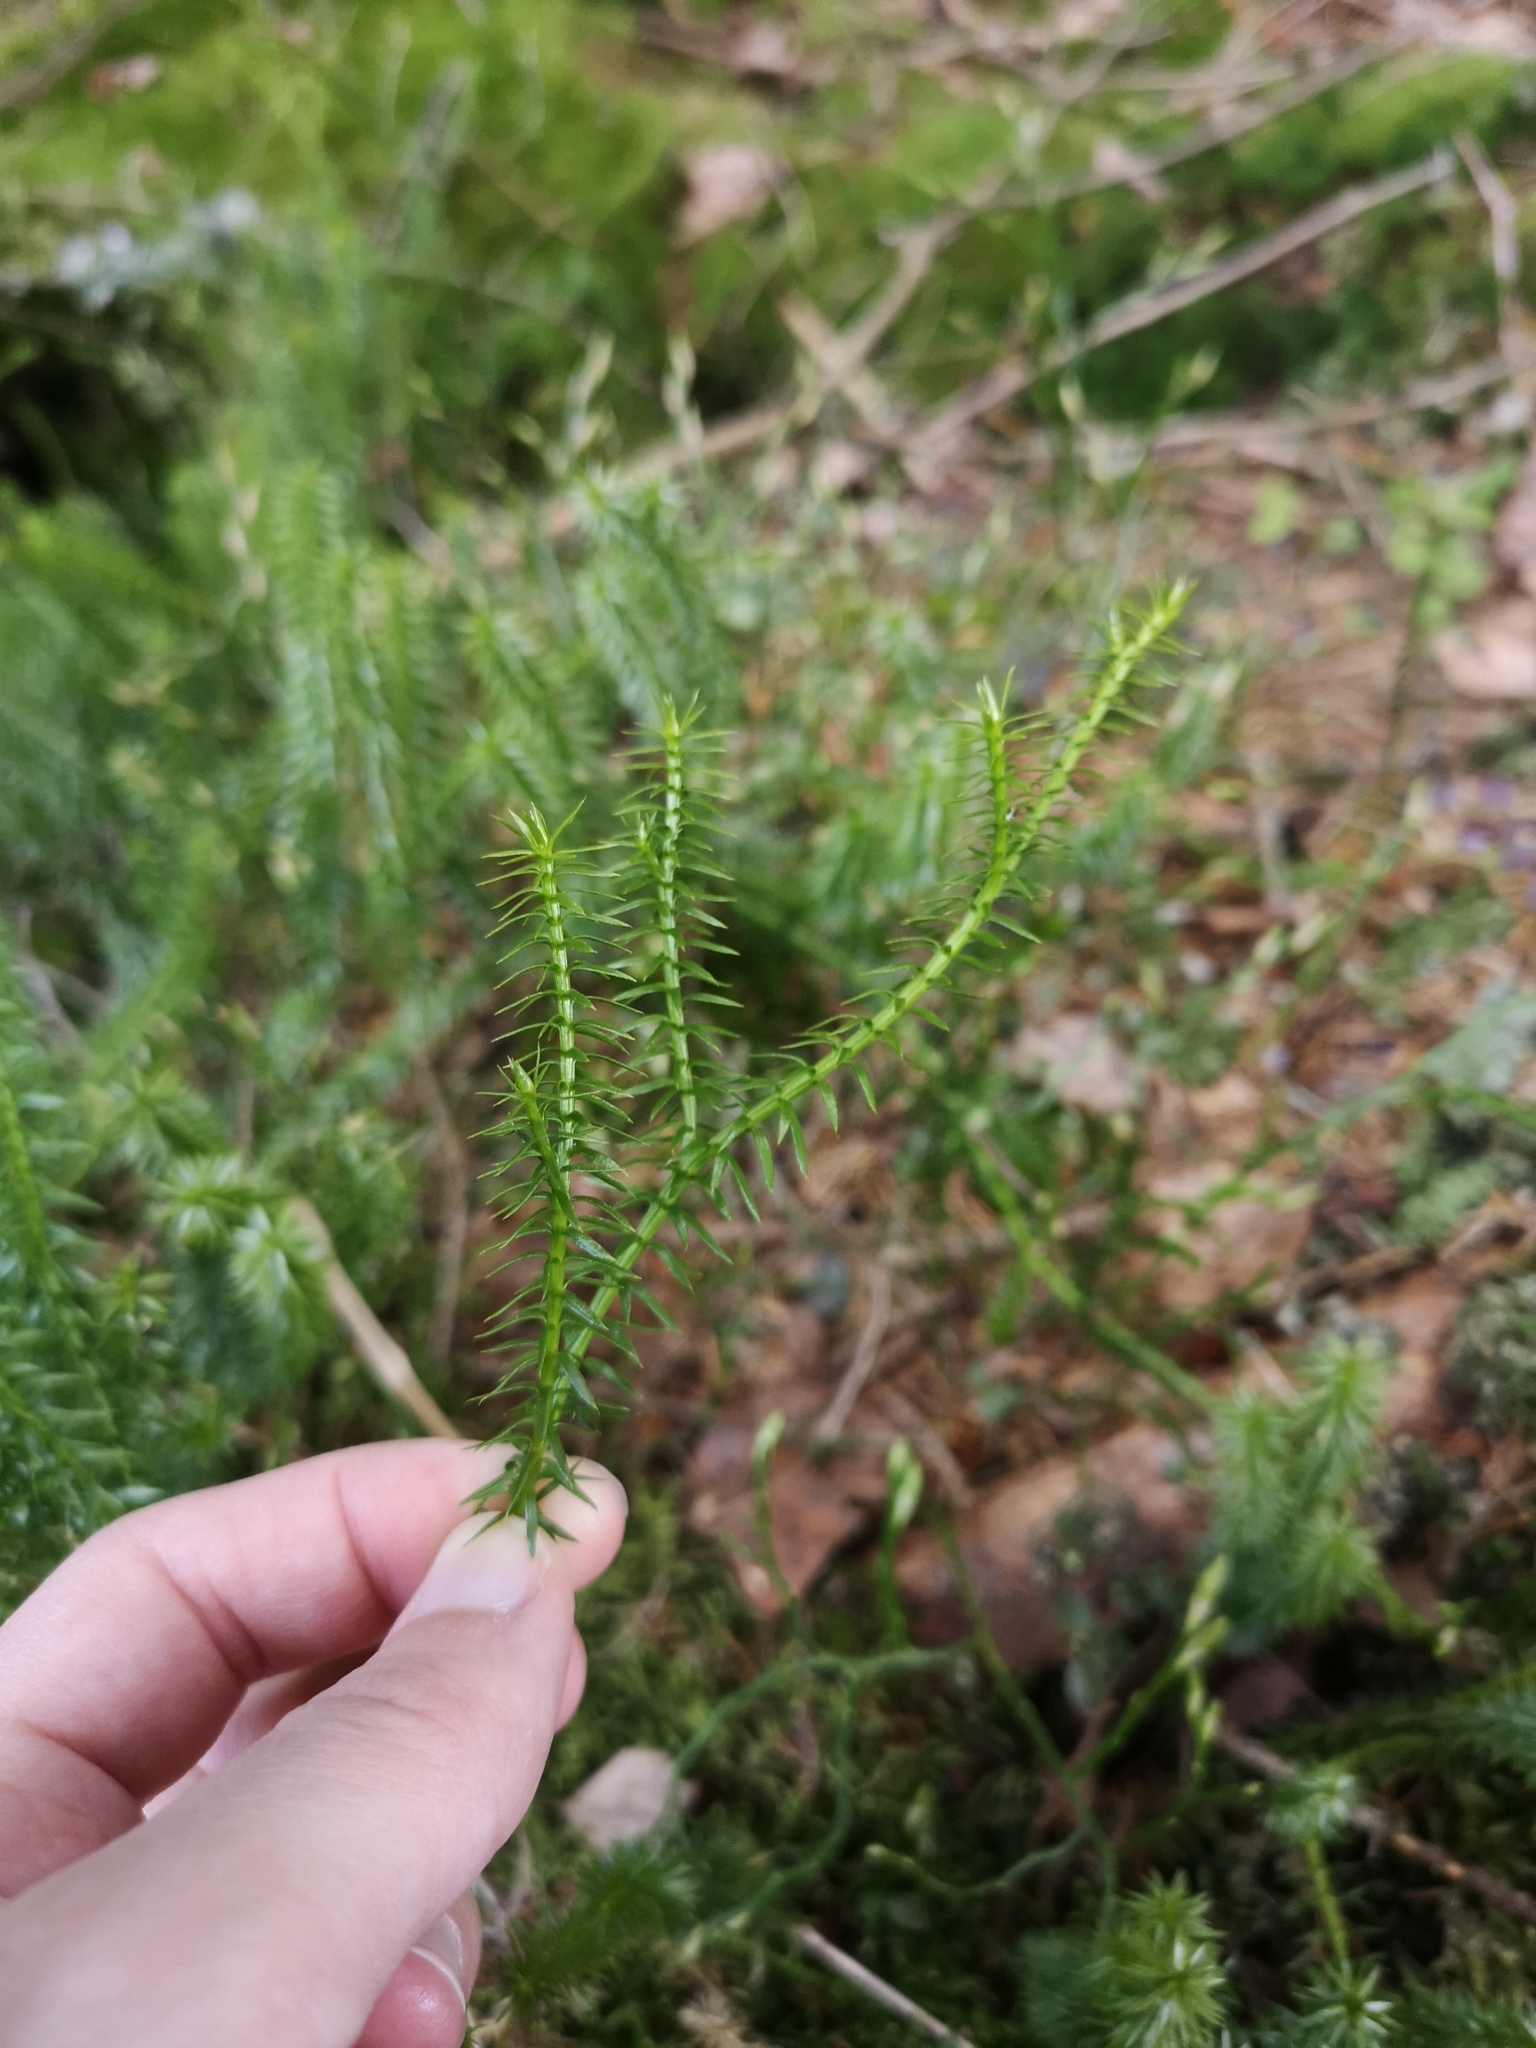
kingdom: Plantae
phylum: Tracheophyta
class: Lycopodiopsida
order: Lycopodiales
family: Lycopodiaceae
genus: Spinulum
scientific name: Spinulum annotinum
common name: Interrupted club-moss
